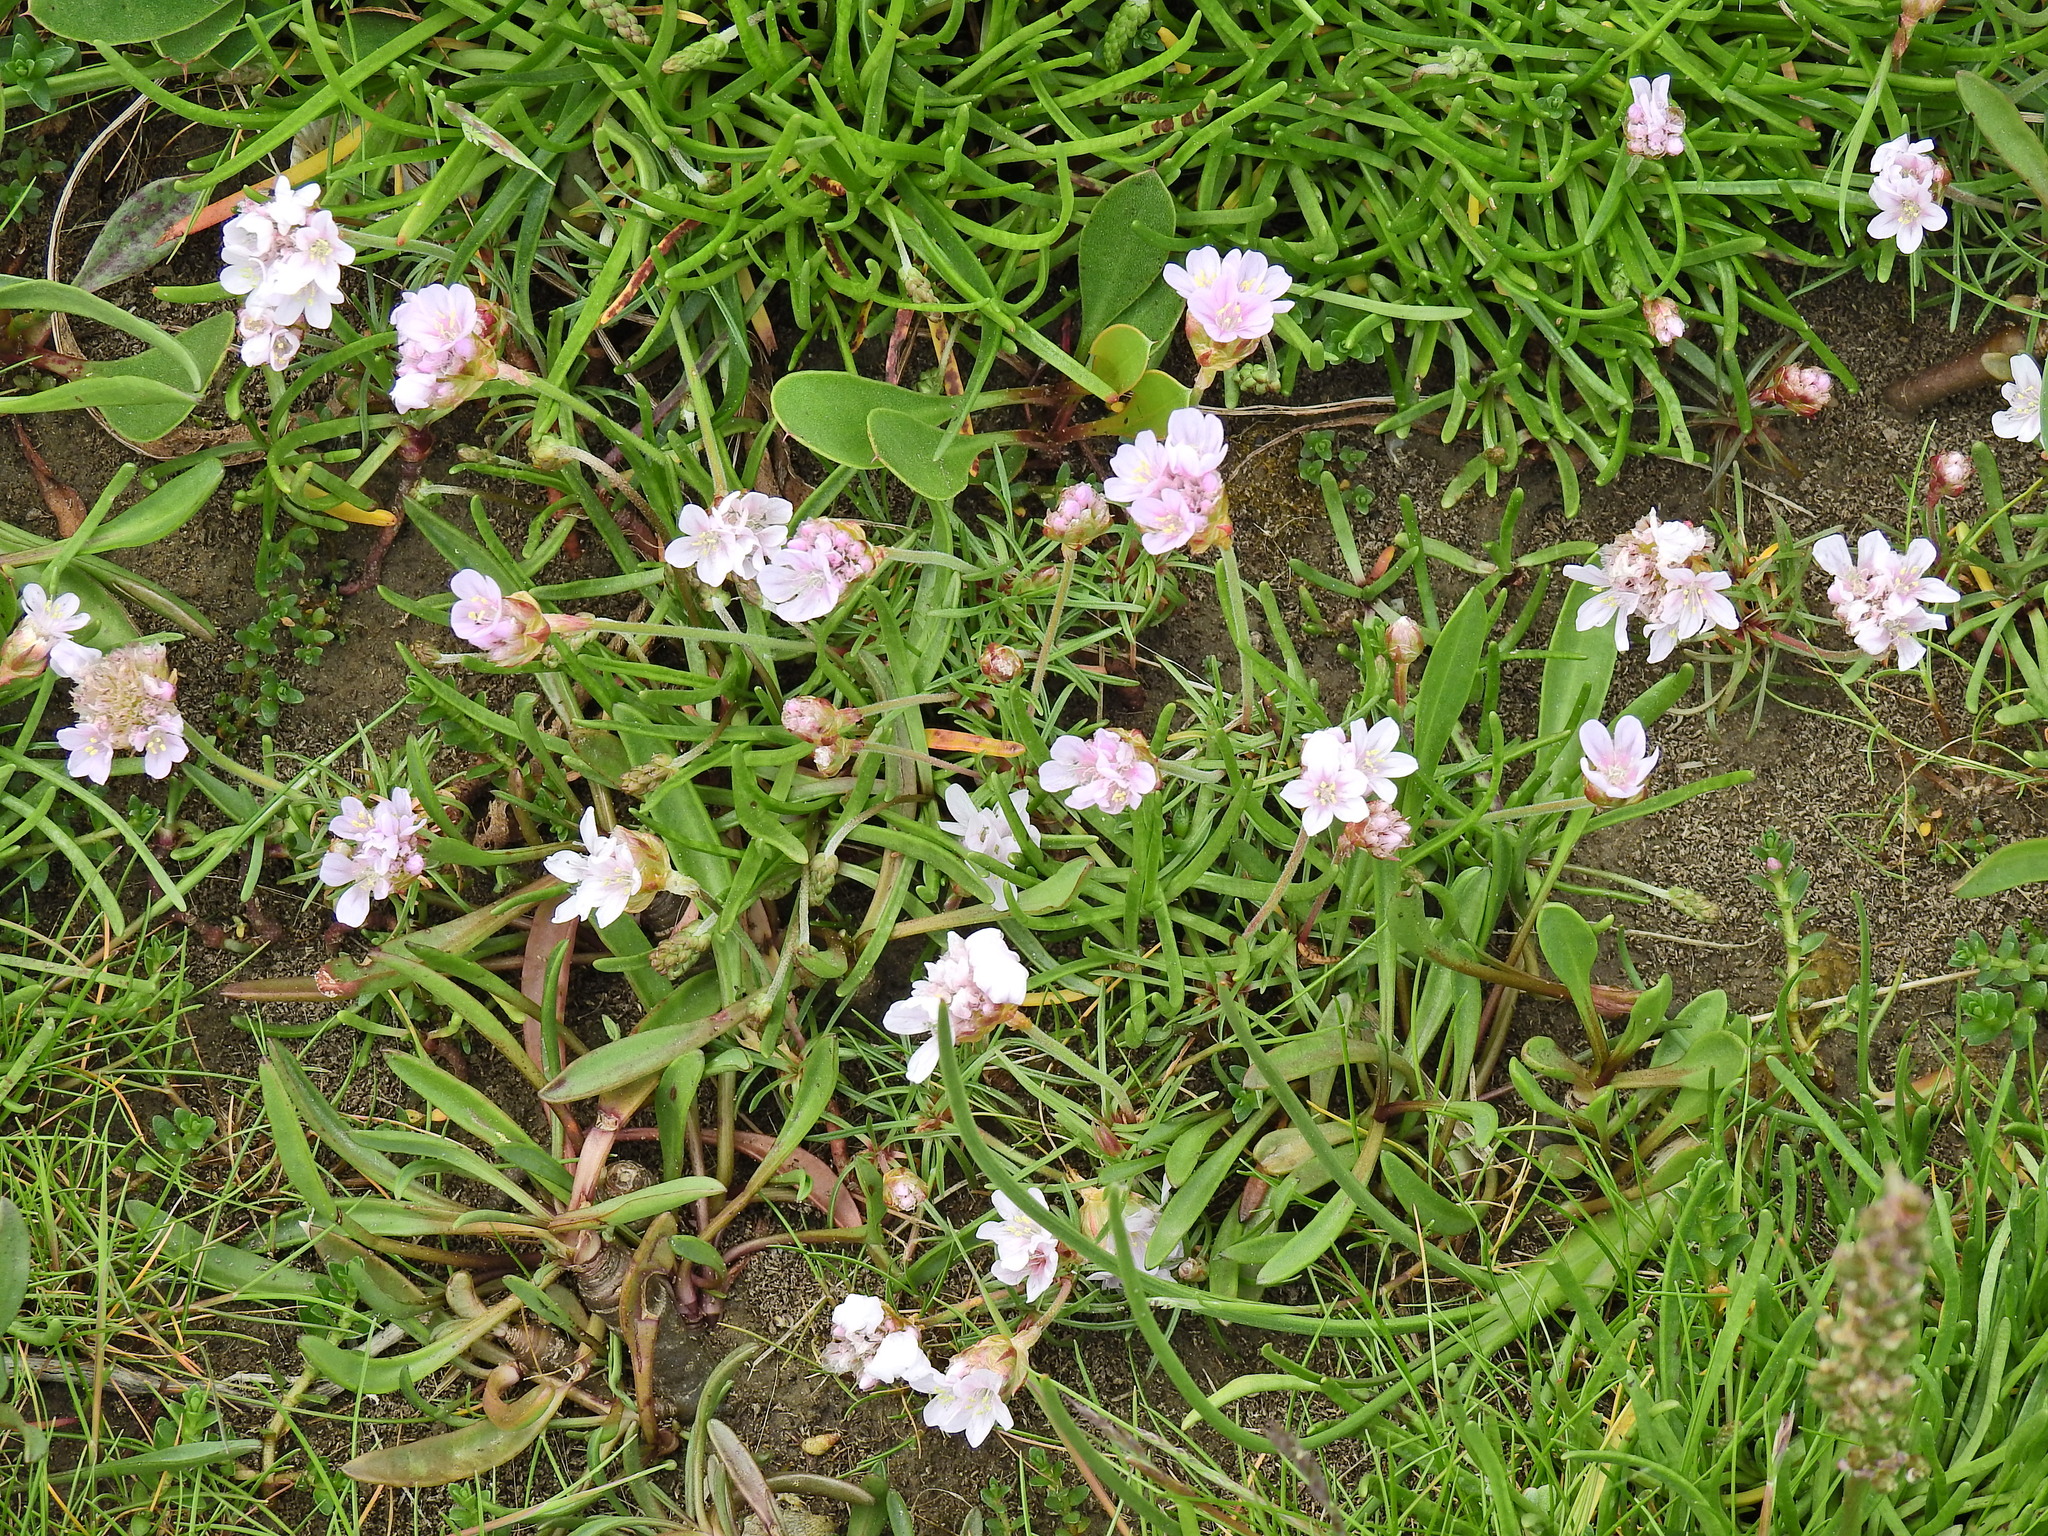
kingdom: Plantae
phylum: Tracheophyta
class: Magnoliopsida
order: Caryophyllales
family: Plumbaginaceae
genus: Armeria
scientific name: Armeria maritima
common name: Thrift
